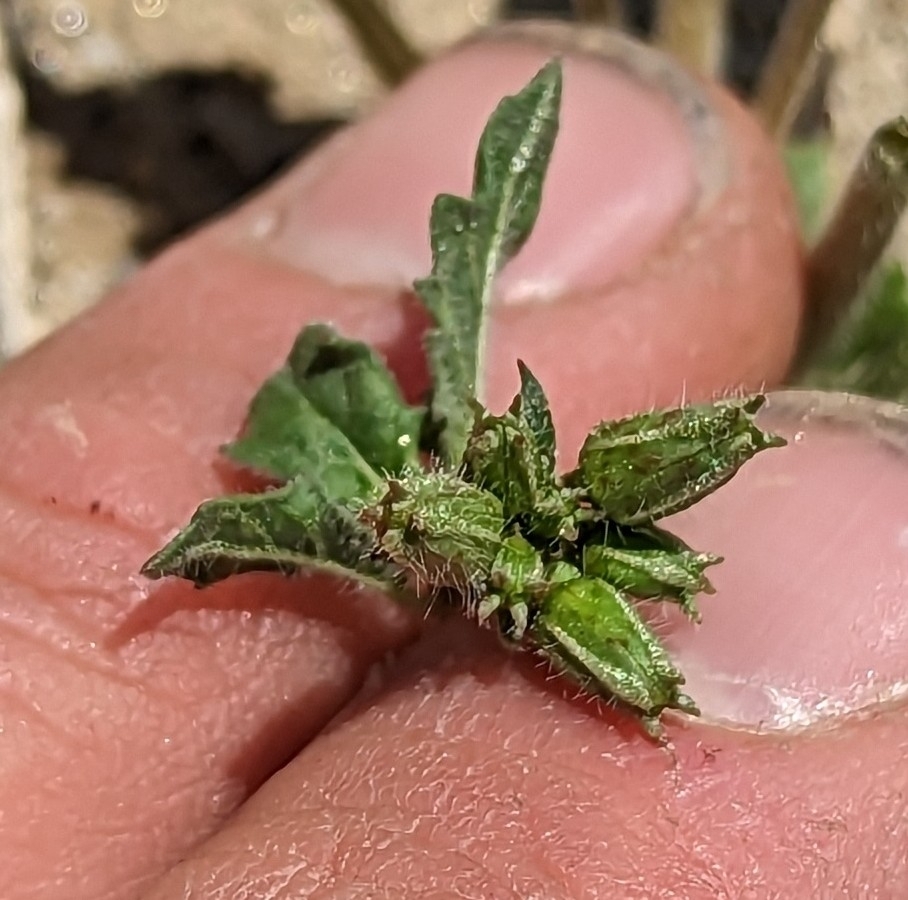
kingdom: Plantae
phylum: Tracheophyta
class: Magnoliopsida
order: Myrtales
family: Onagraceae
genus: Chylismia
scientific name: Chylismia claviformis
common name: Browneyes
